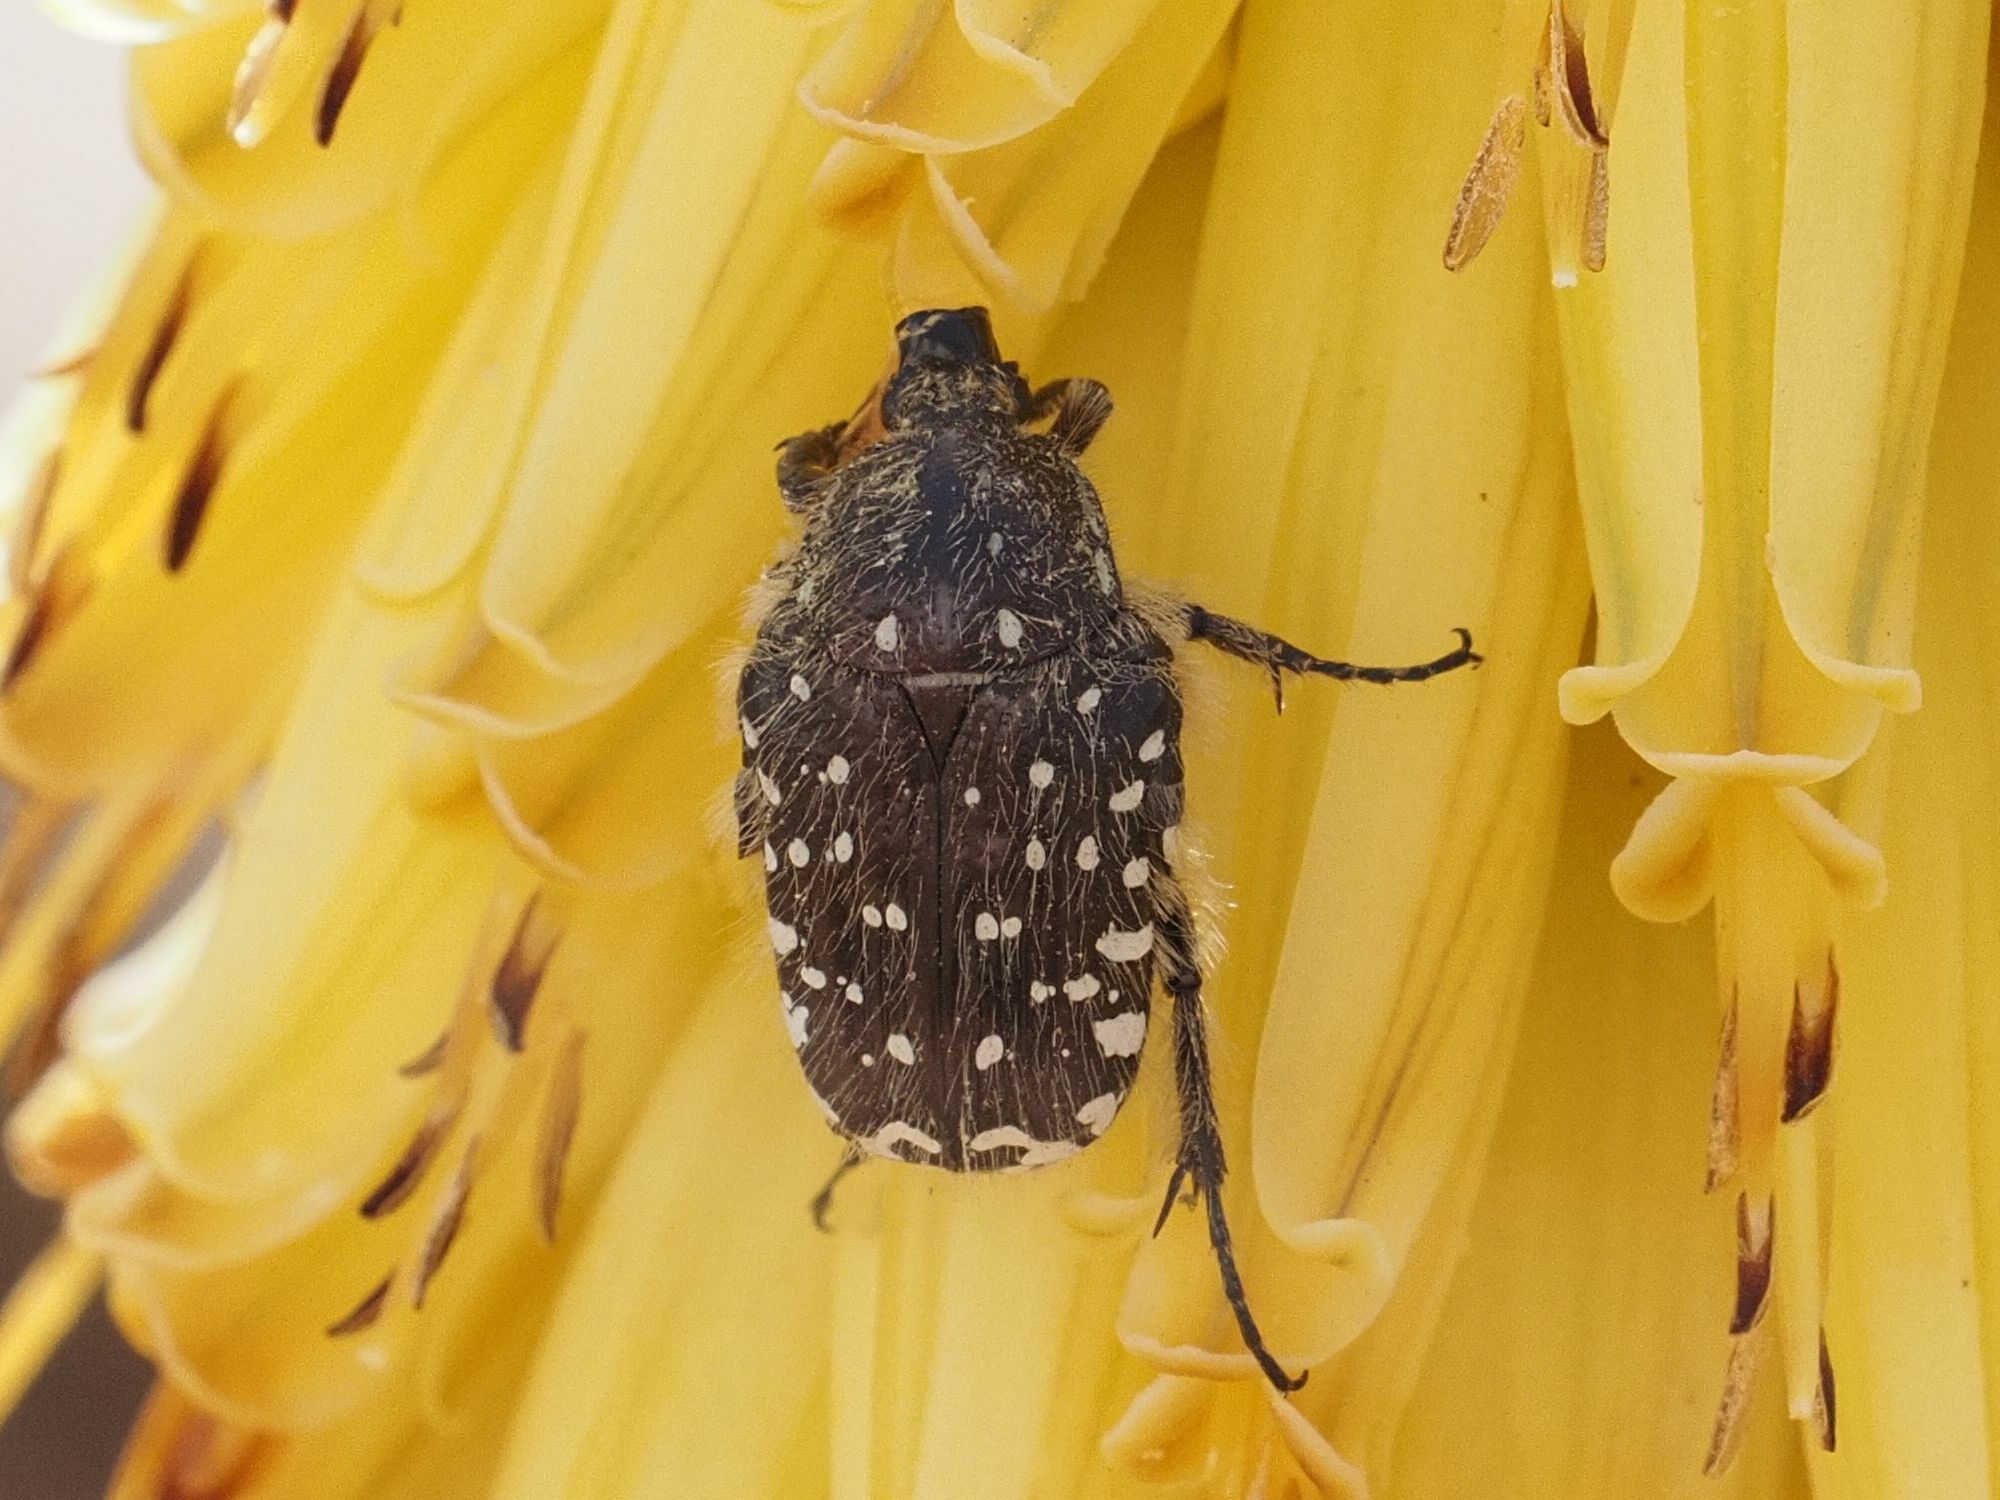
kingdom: Animalia
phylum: Arthropoda
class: Insecta
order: Coleoptera
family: Scarabaeidae
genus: Oxythyrea
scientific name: Oxythyrea funesta
